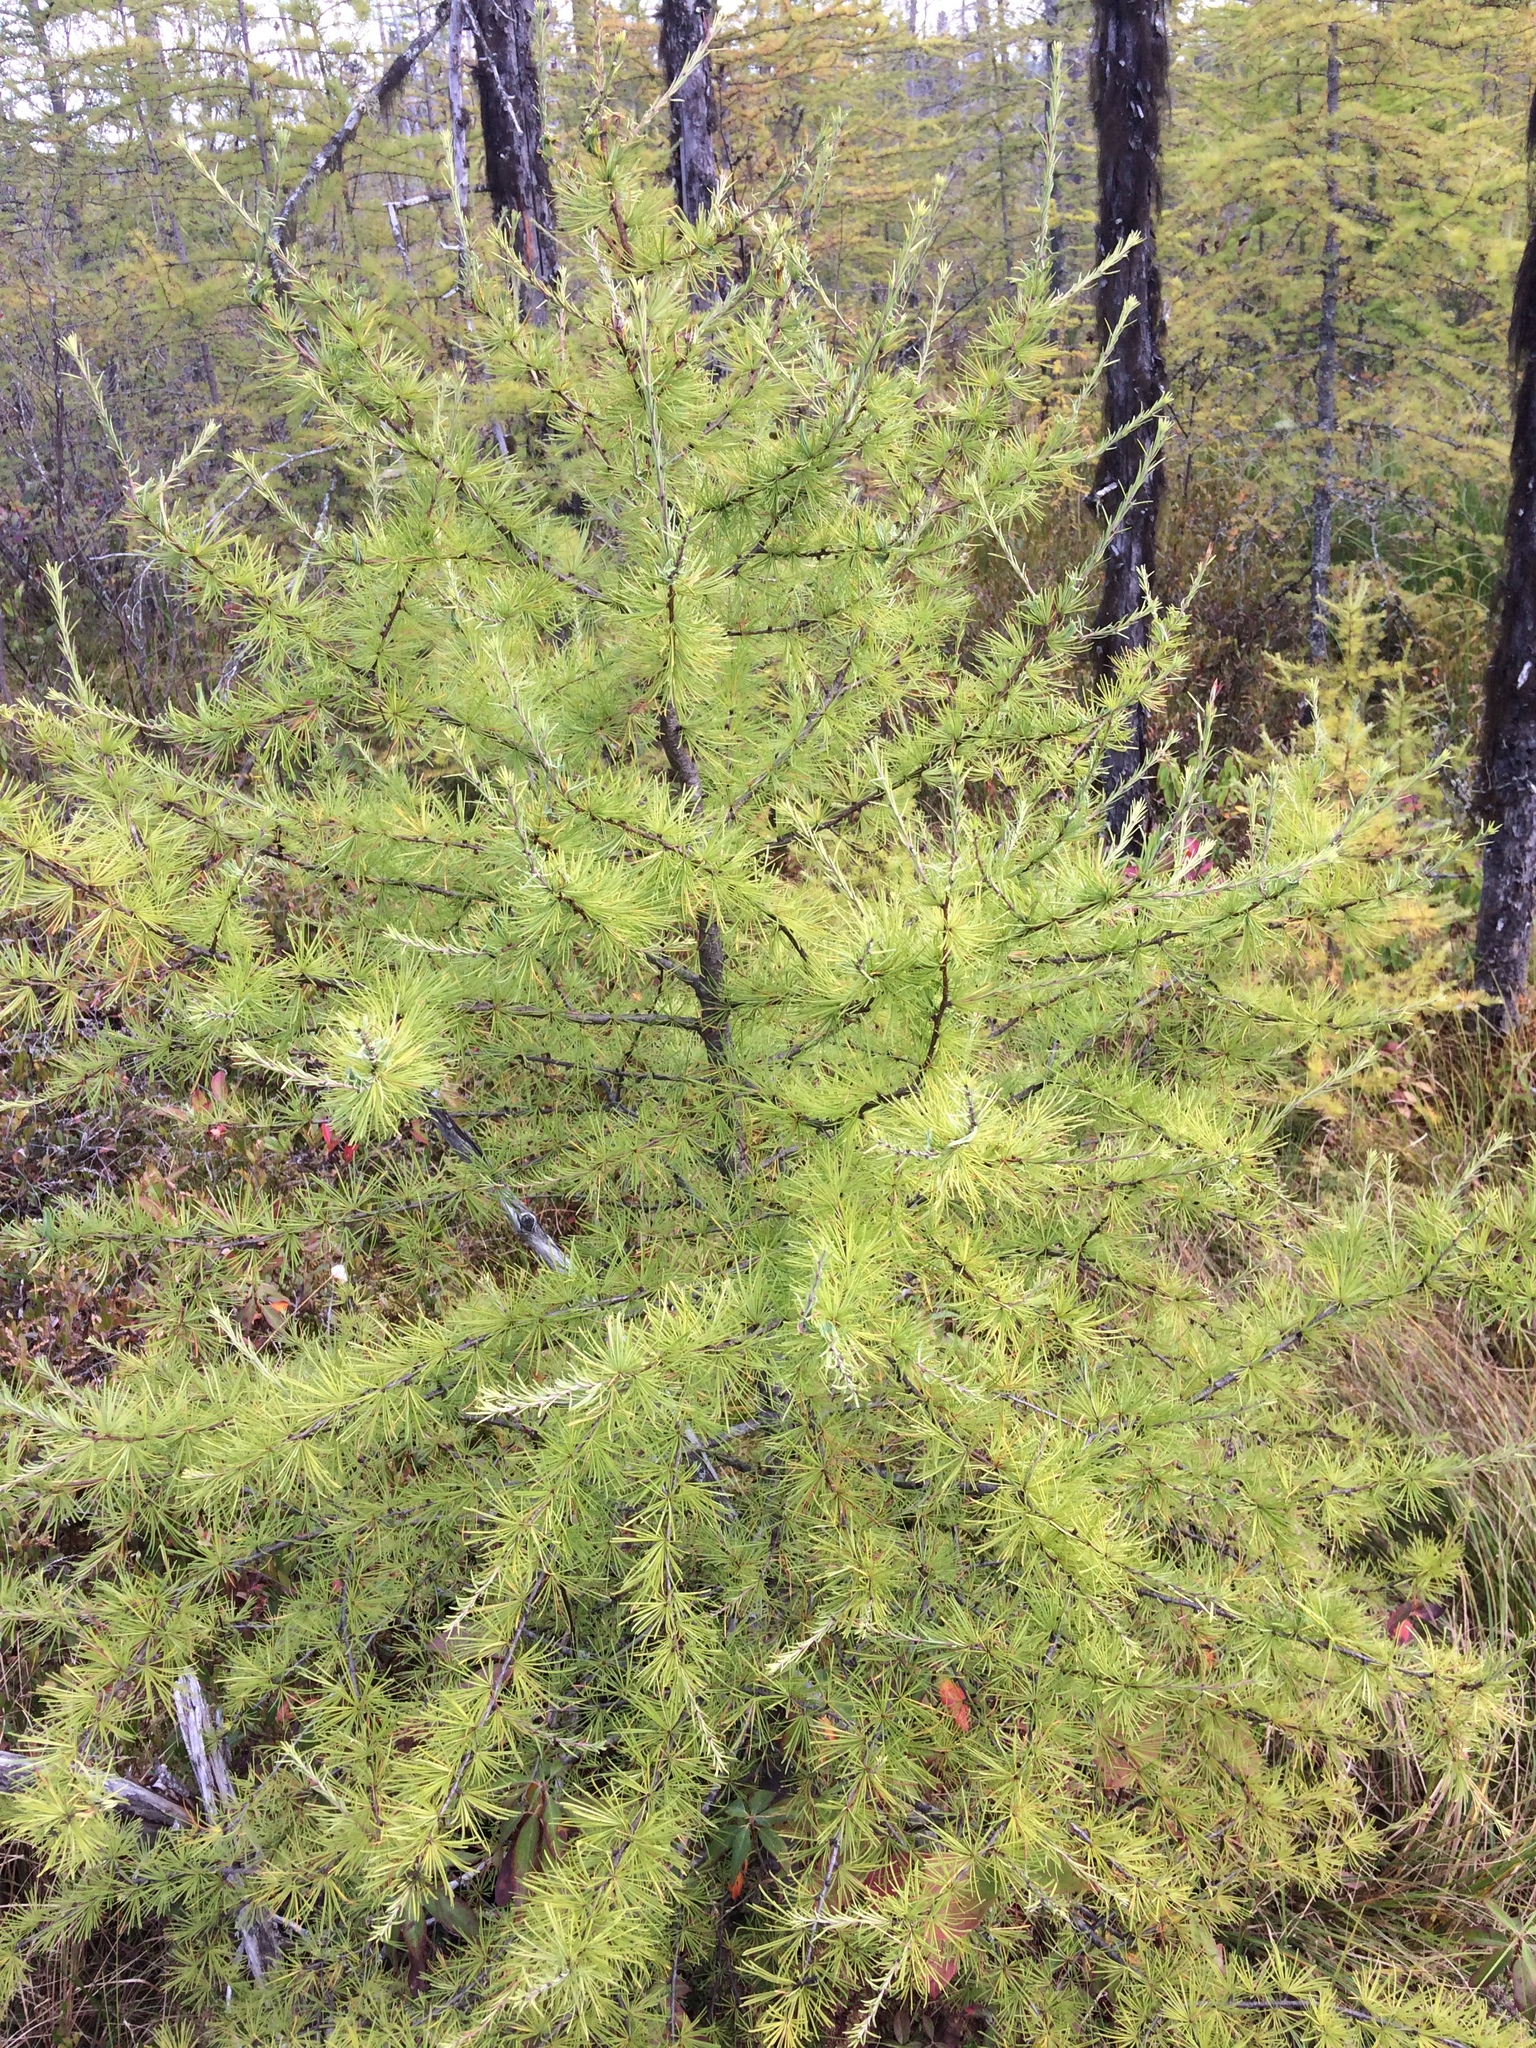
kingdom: Plantae
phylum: Tracheophyta
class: Pinopsida
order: Pinales
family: Pinaceae
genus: Larix
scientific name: Larix laricina
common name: American larch
